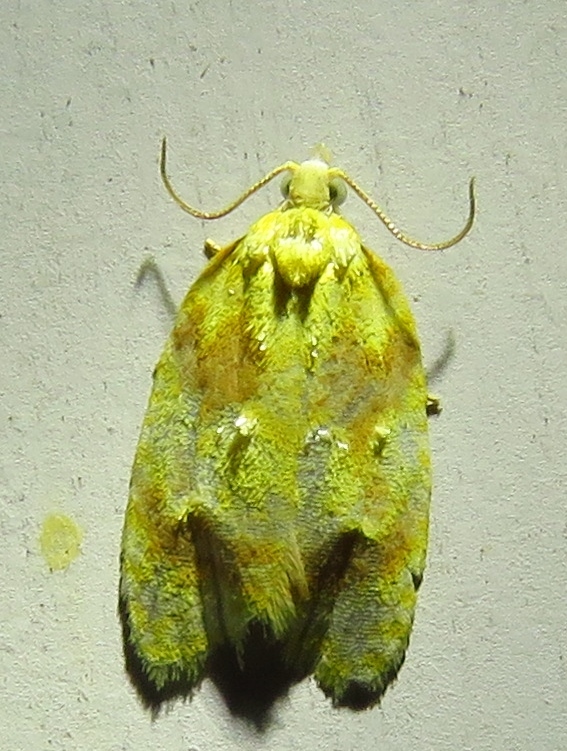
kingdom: Animalia
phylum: Arthropoda
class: Insecta
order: Lepidoptera
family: Tortricidae
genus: Sparganothis
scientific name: Sparganothis pulcherrimana
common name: Beautiful sparganothis
